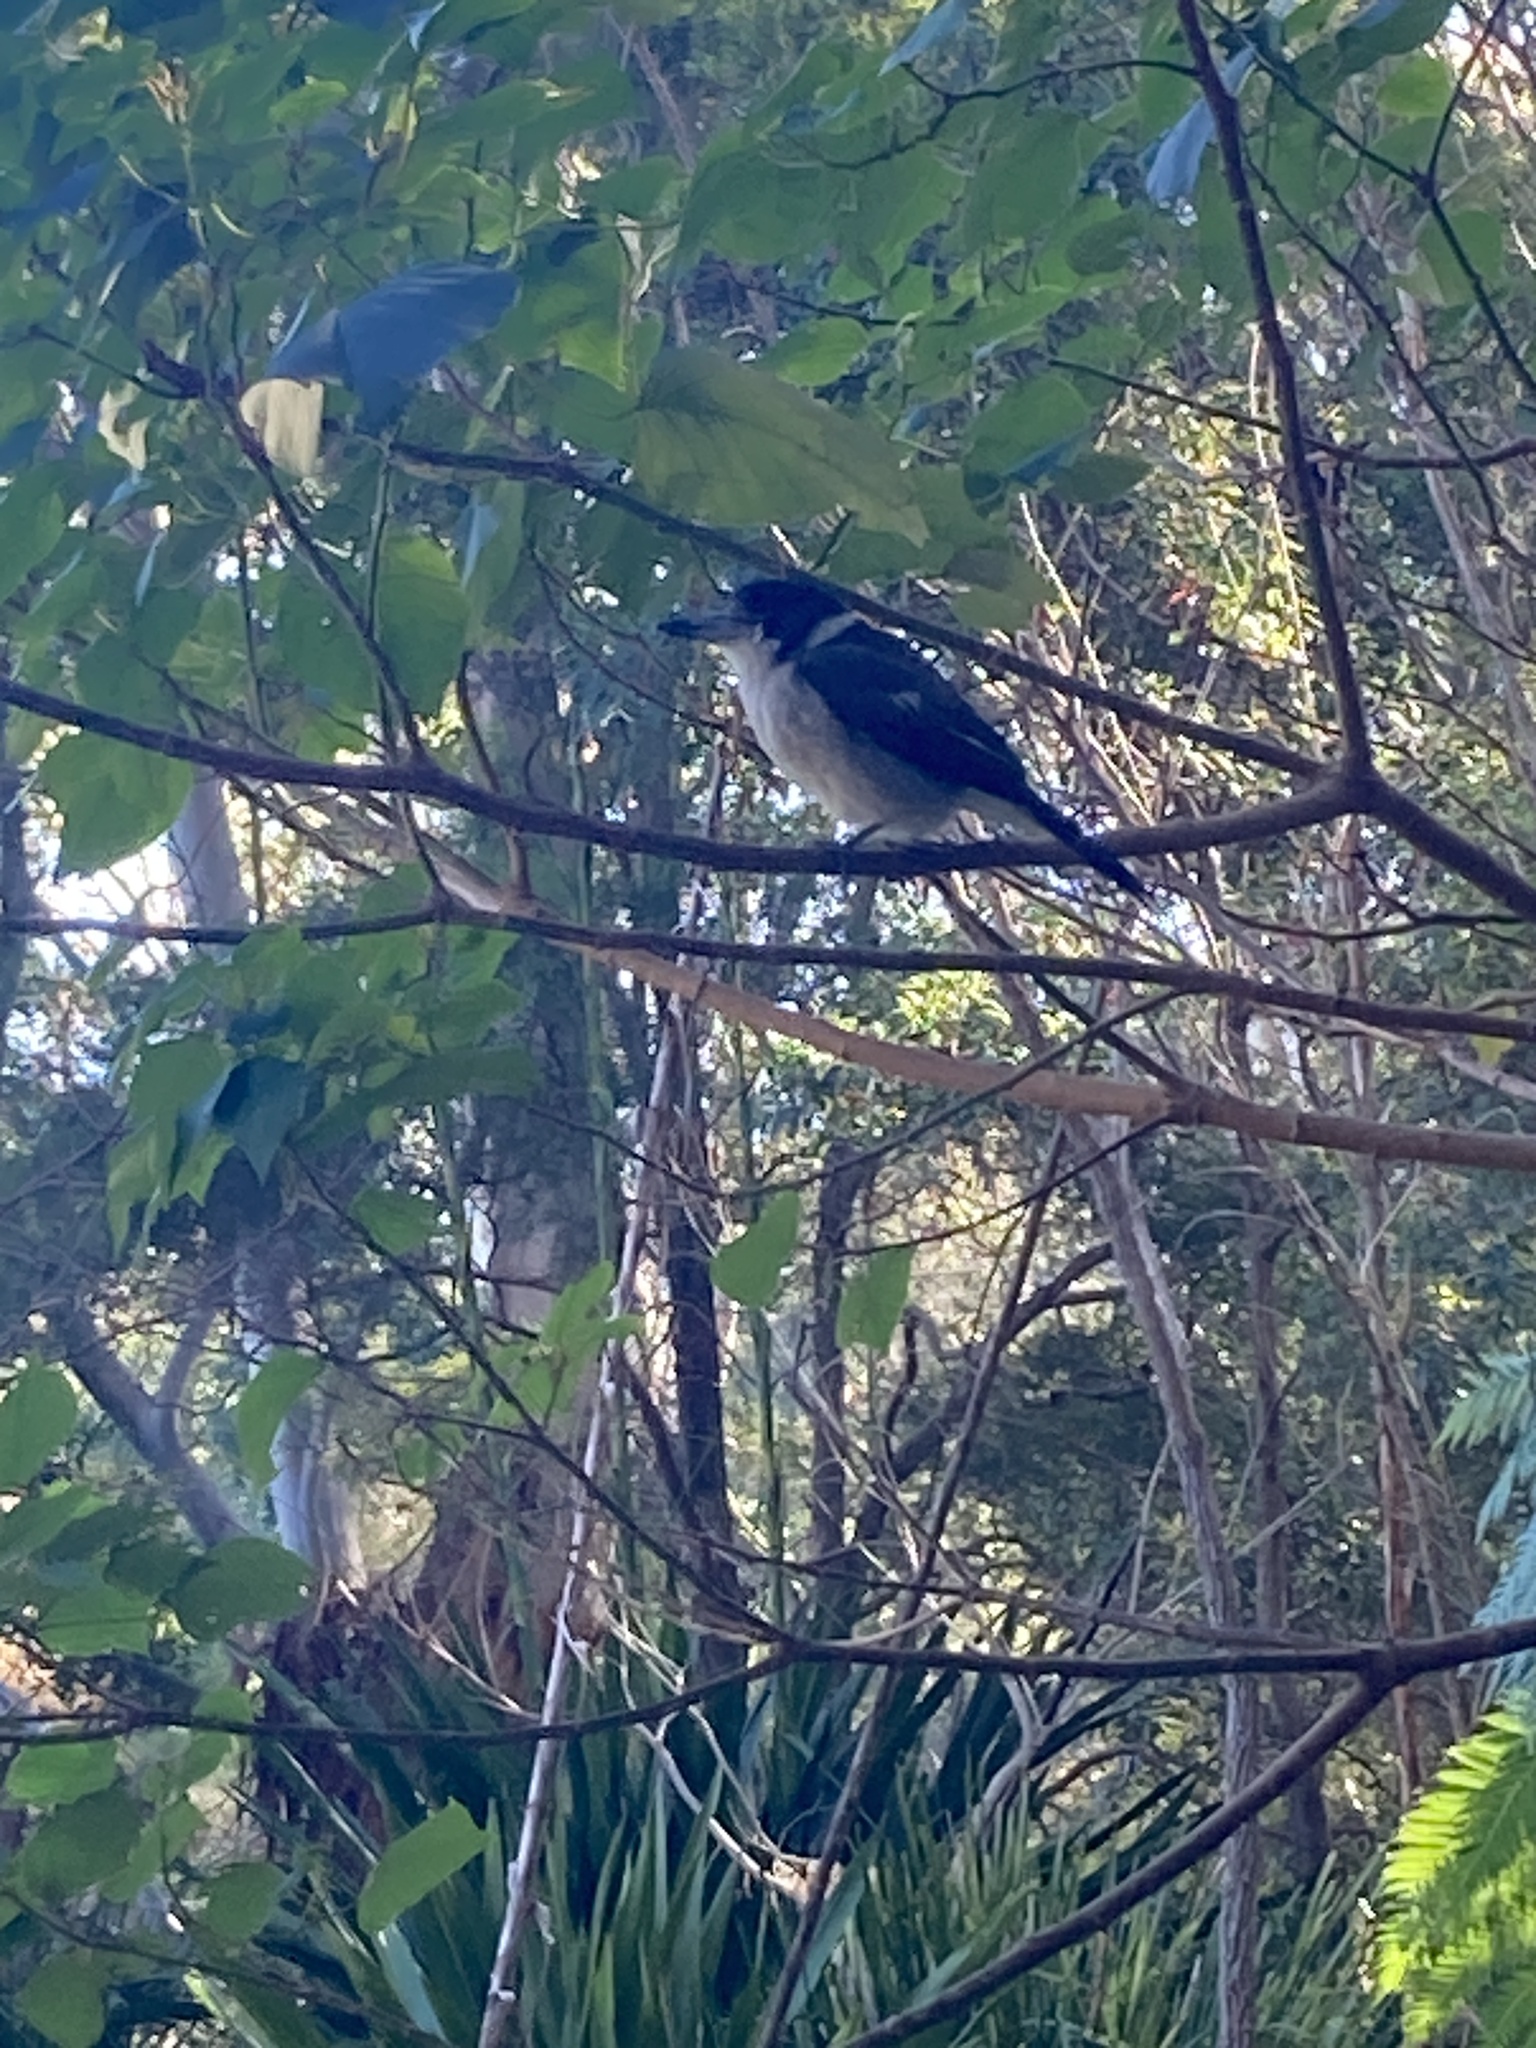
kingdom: Animalia
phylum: Chordata
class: Aves
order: Passeriformes
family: Cracticidae
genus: Cracticus
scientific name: Cracticus torquatus
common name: Grey butcherbird
